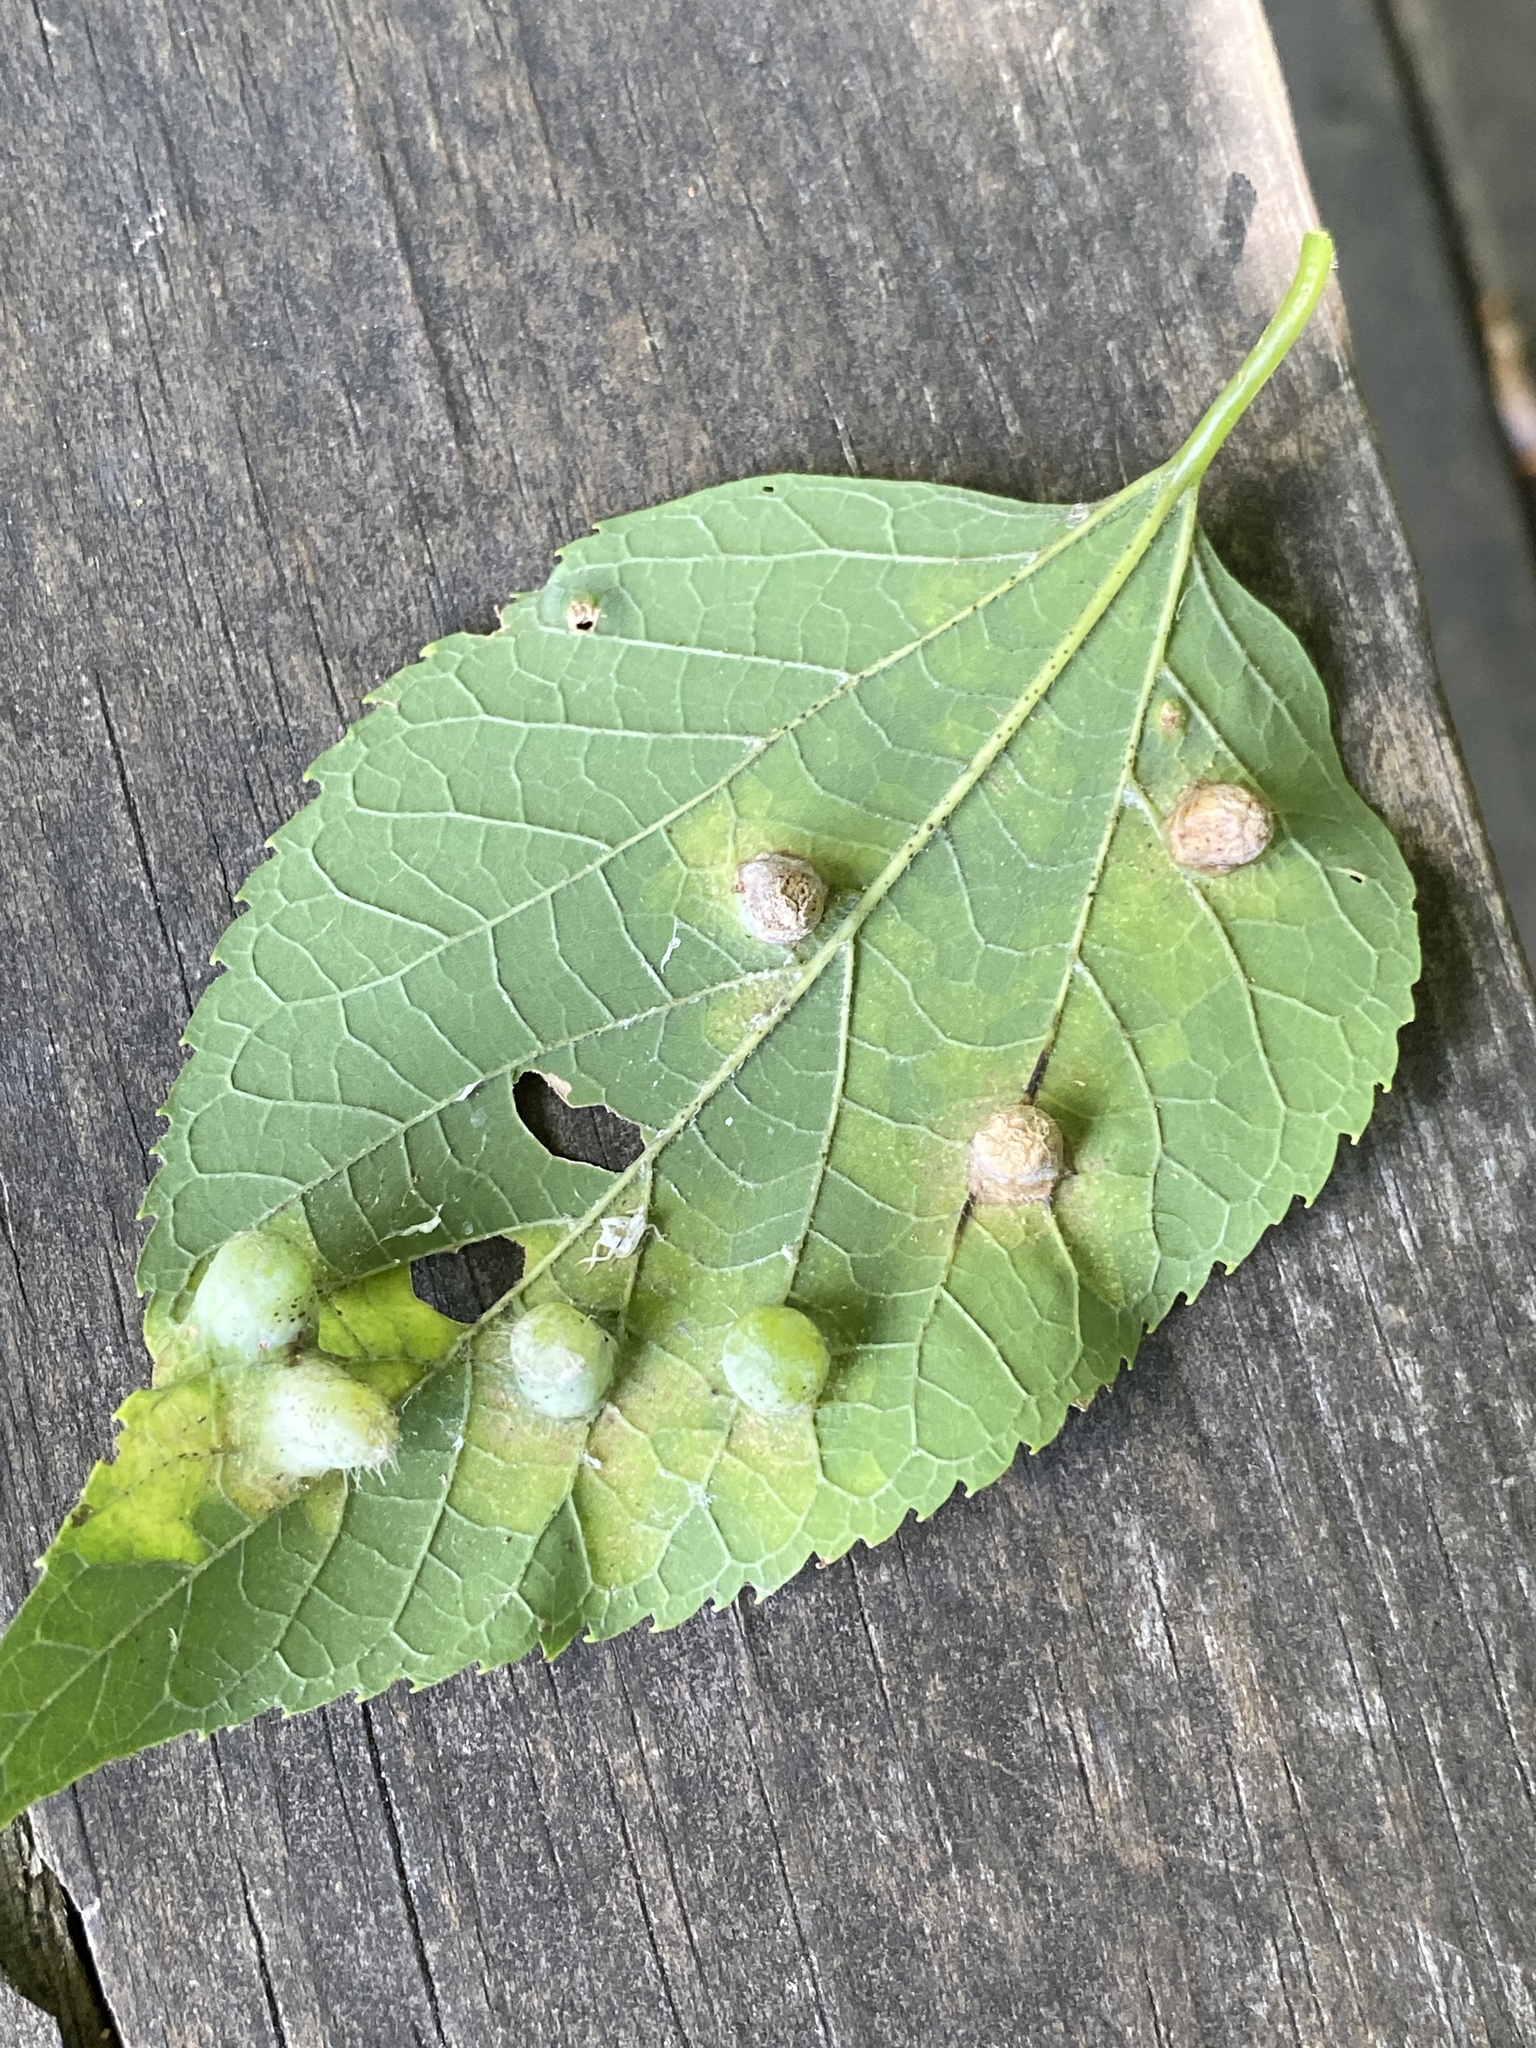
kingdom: Animalia
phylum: Arthropoda
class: Insecta
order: Hemiptera
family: Aphalaridae
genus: Pachypsylla
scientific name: Pachypsylla celtidismamma
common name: Hackberry nipplegall psyllid
